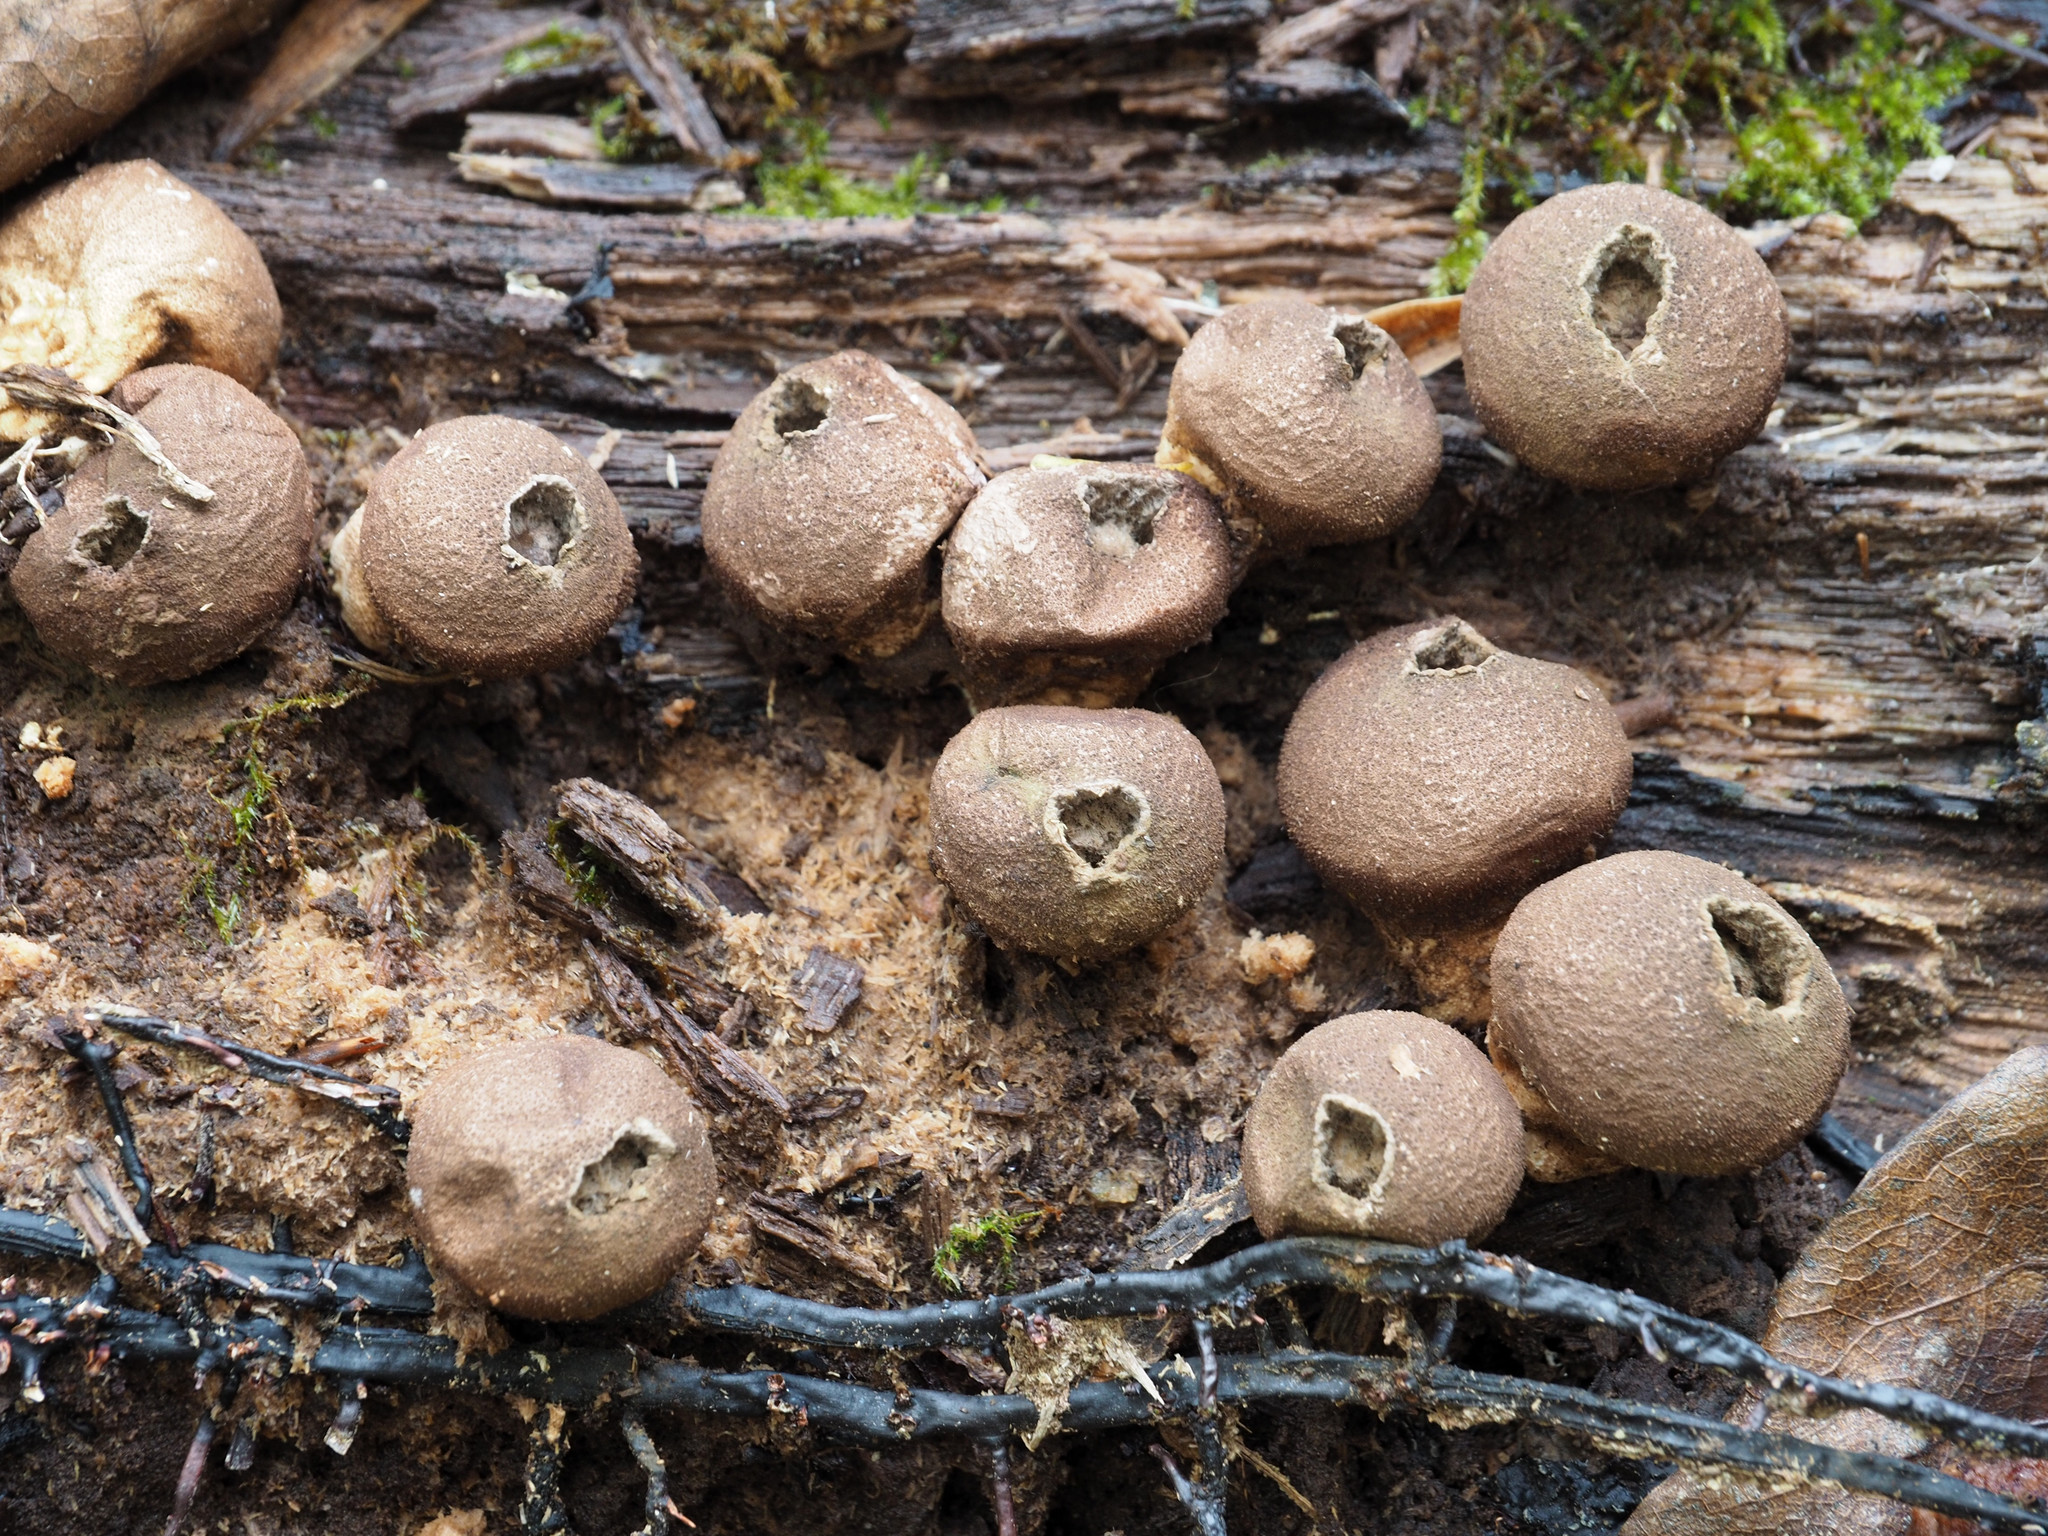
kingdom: Fungi
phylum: Basidiomycota
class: Agaricomycetes
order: Agaricales
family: Lycoperdaceae
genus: Apioperdon
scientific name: Apioperdon pyriforme
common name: Pear-shaped puffball
